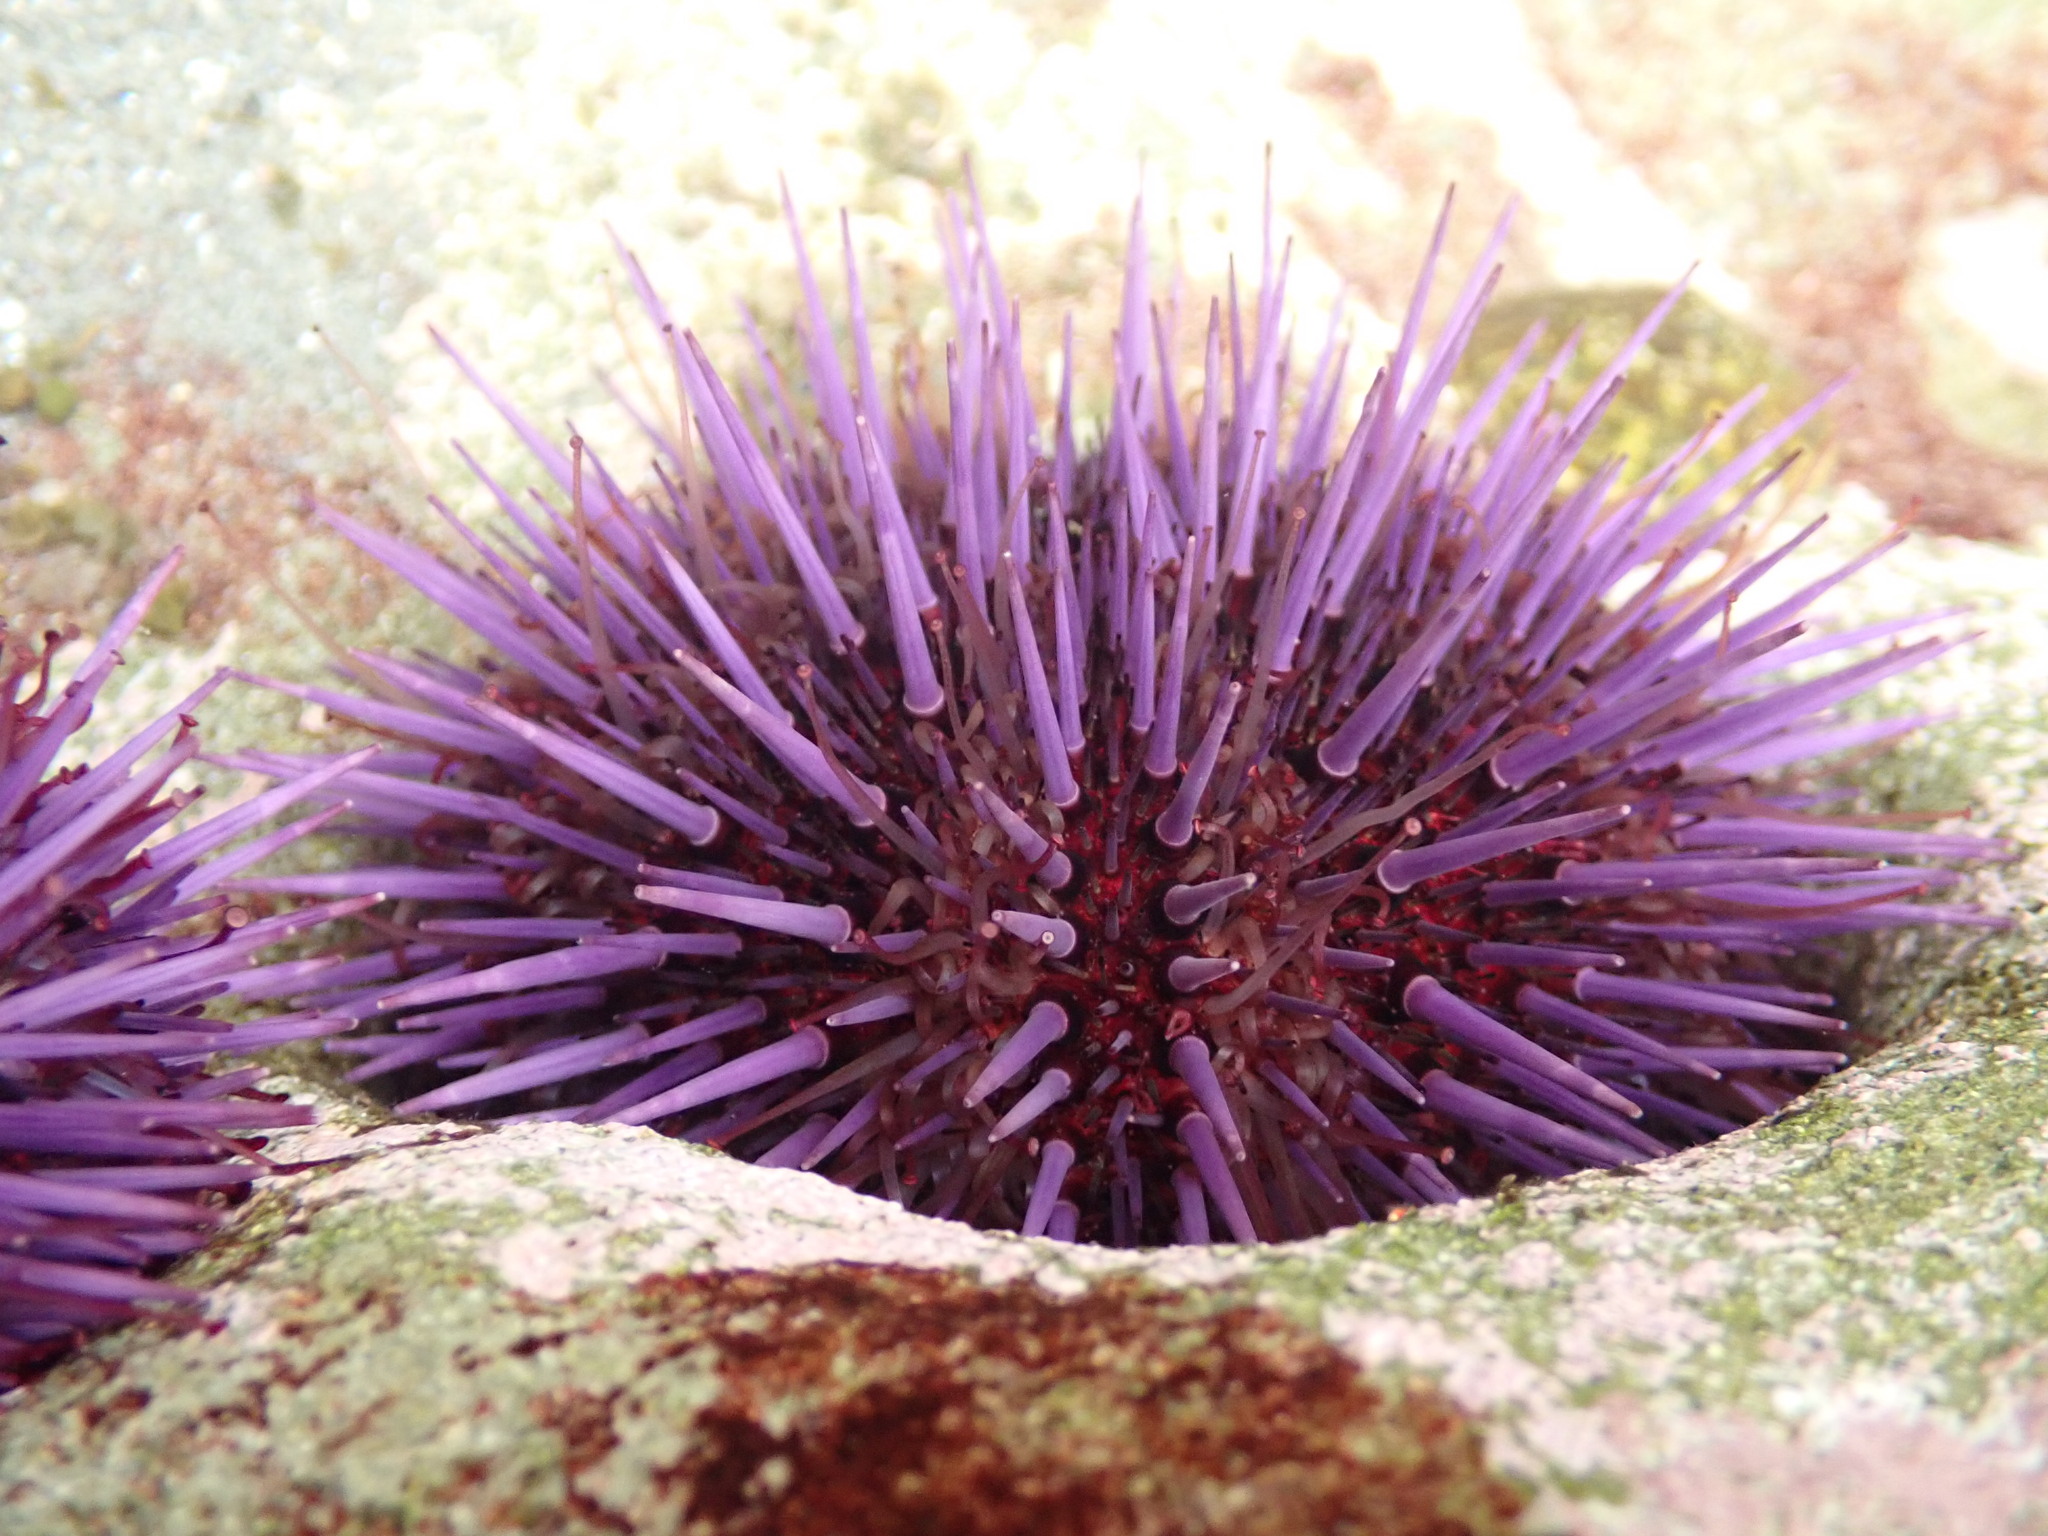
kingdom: Animalia
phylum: Echinodermata
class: Echinoidea
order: Camarodonta
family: Strongylocentrotidae
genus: Strongylocentrotus
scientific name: Strongylocentrotus purpuratus
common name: Purple sea urchin
